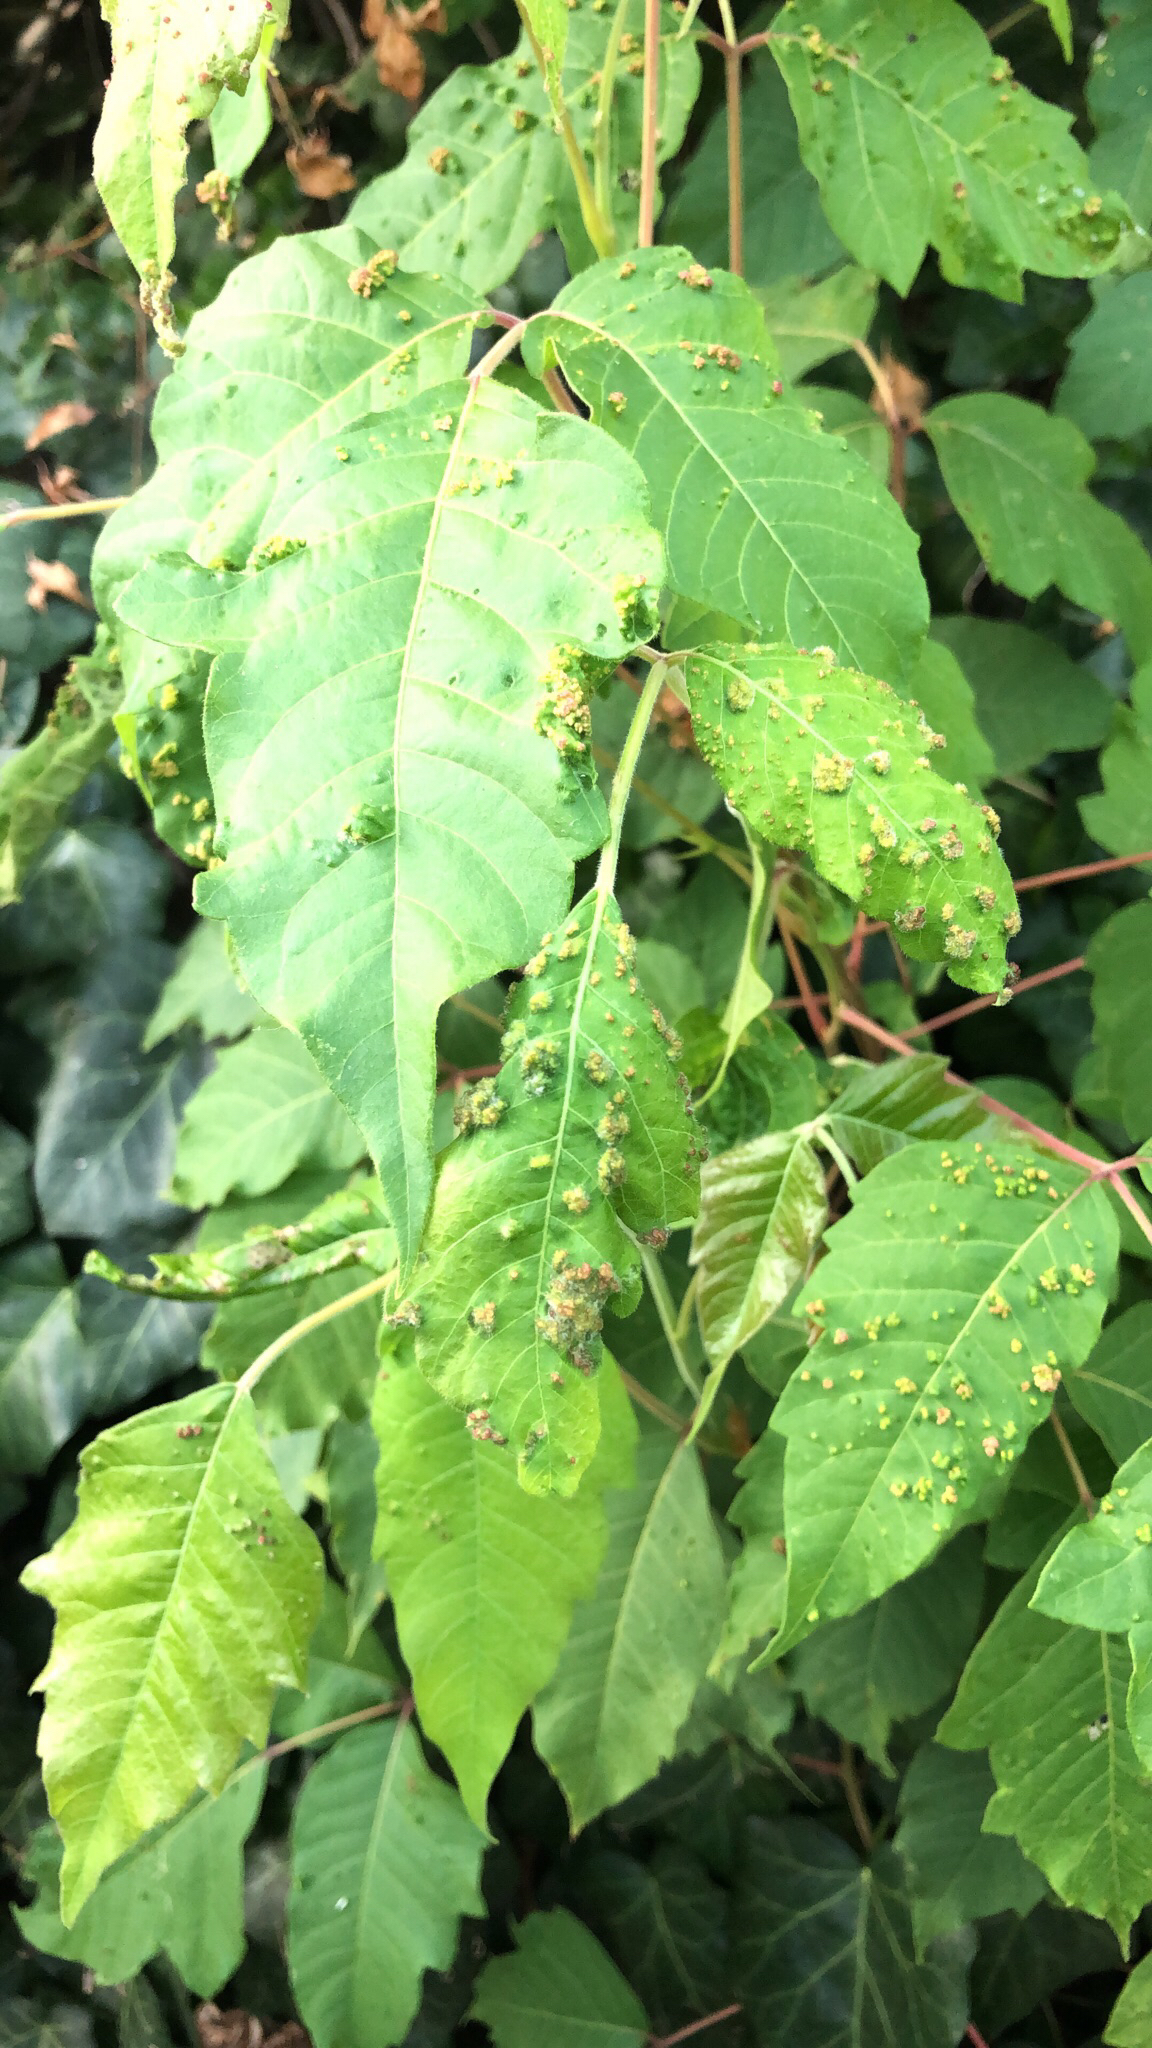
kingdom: Animalia
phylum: Arthropoda
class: Arachnida
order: Trombidiformes
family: Eriophyidae
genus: Aculops
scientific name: Aculops
